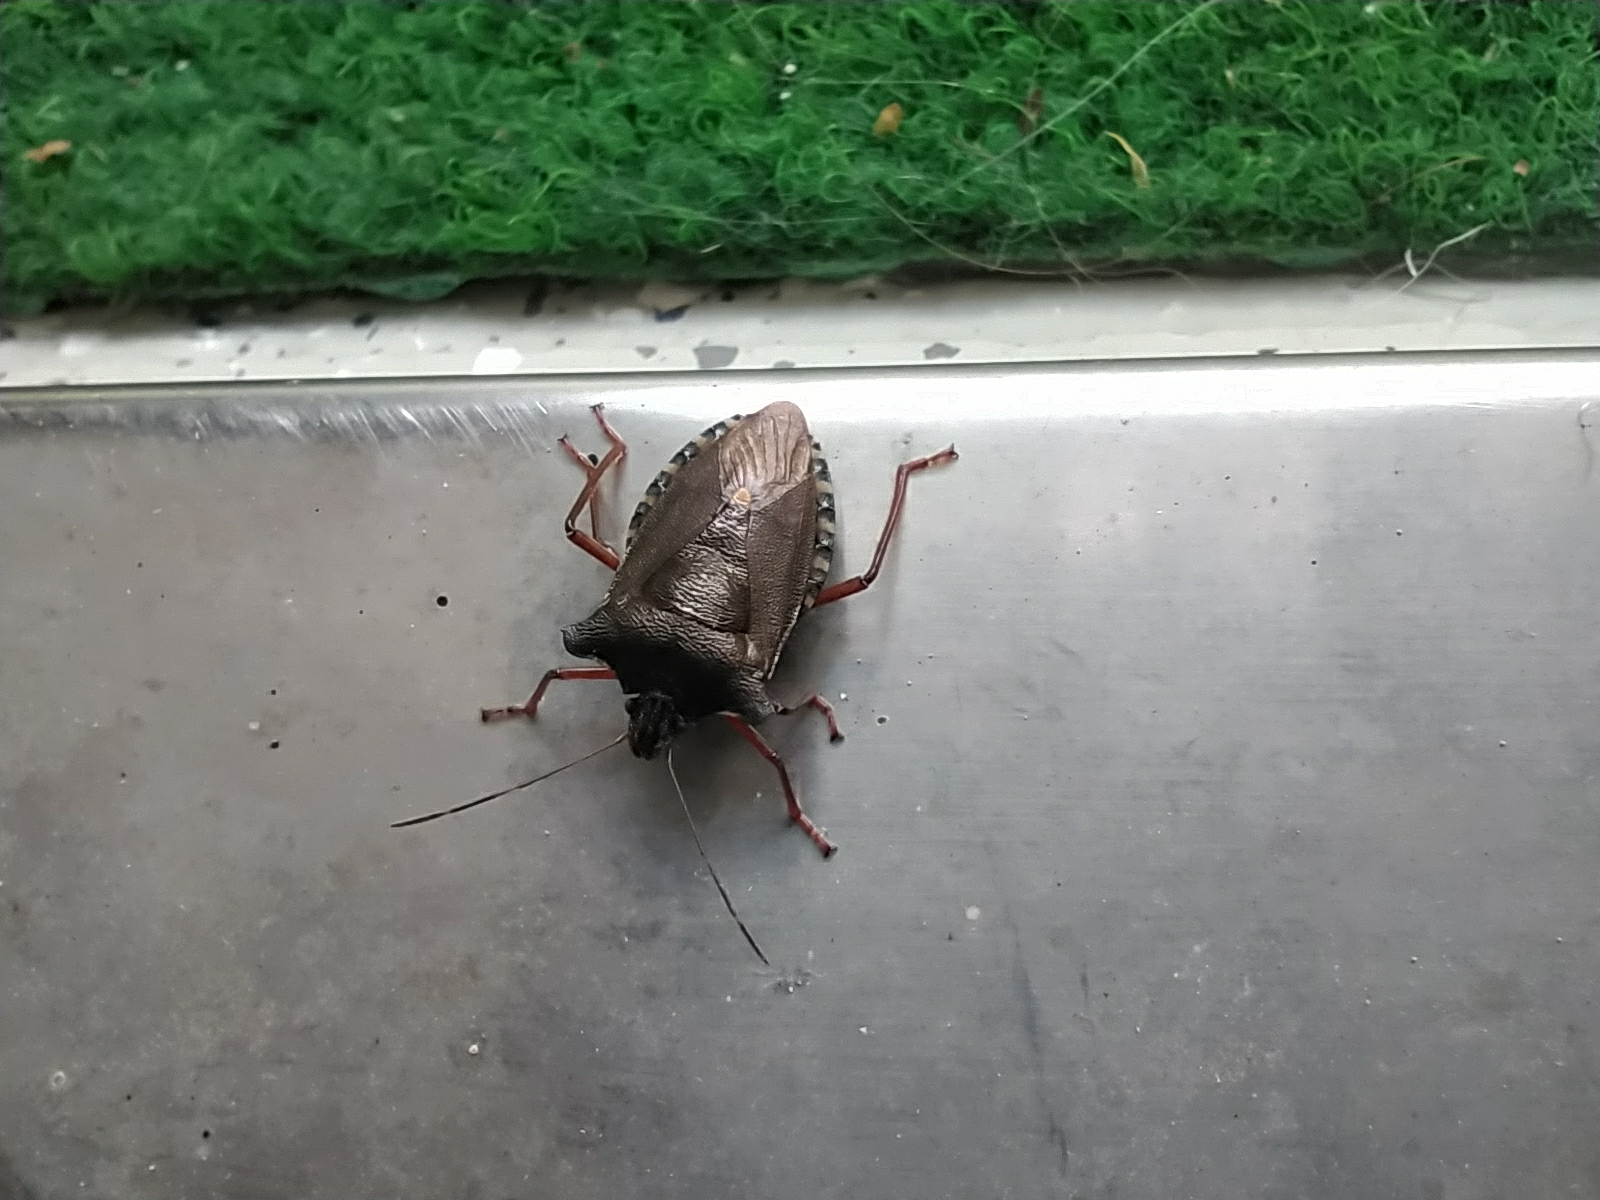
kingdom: Animalia
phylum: Arthropoda
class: Insecta
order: Hemiptera
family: Pentatomidae
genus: Pentatoma
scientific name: Pentatoma rufipes
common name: Forest bug
